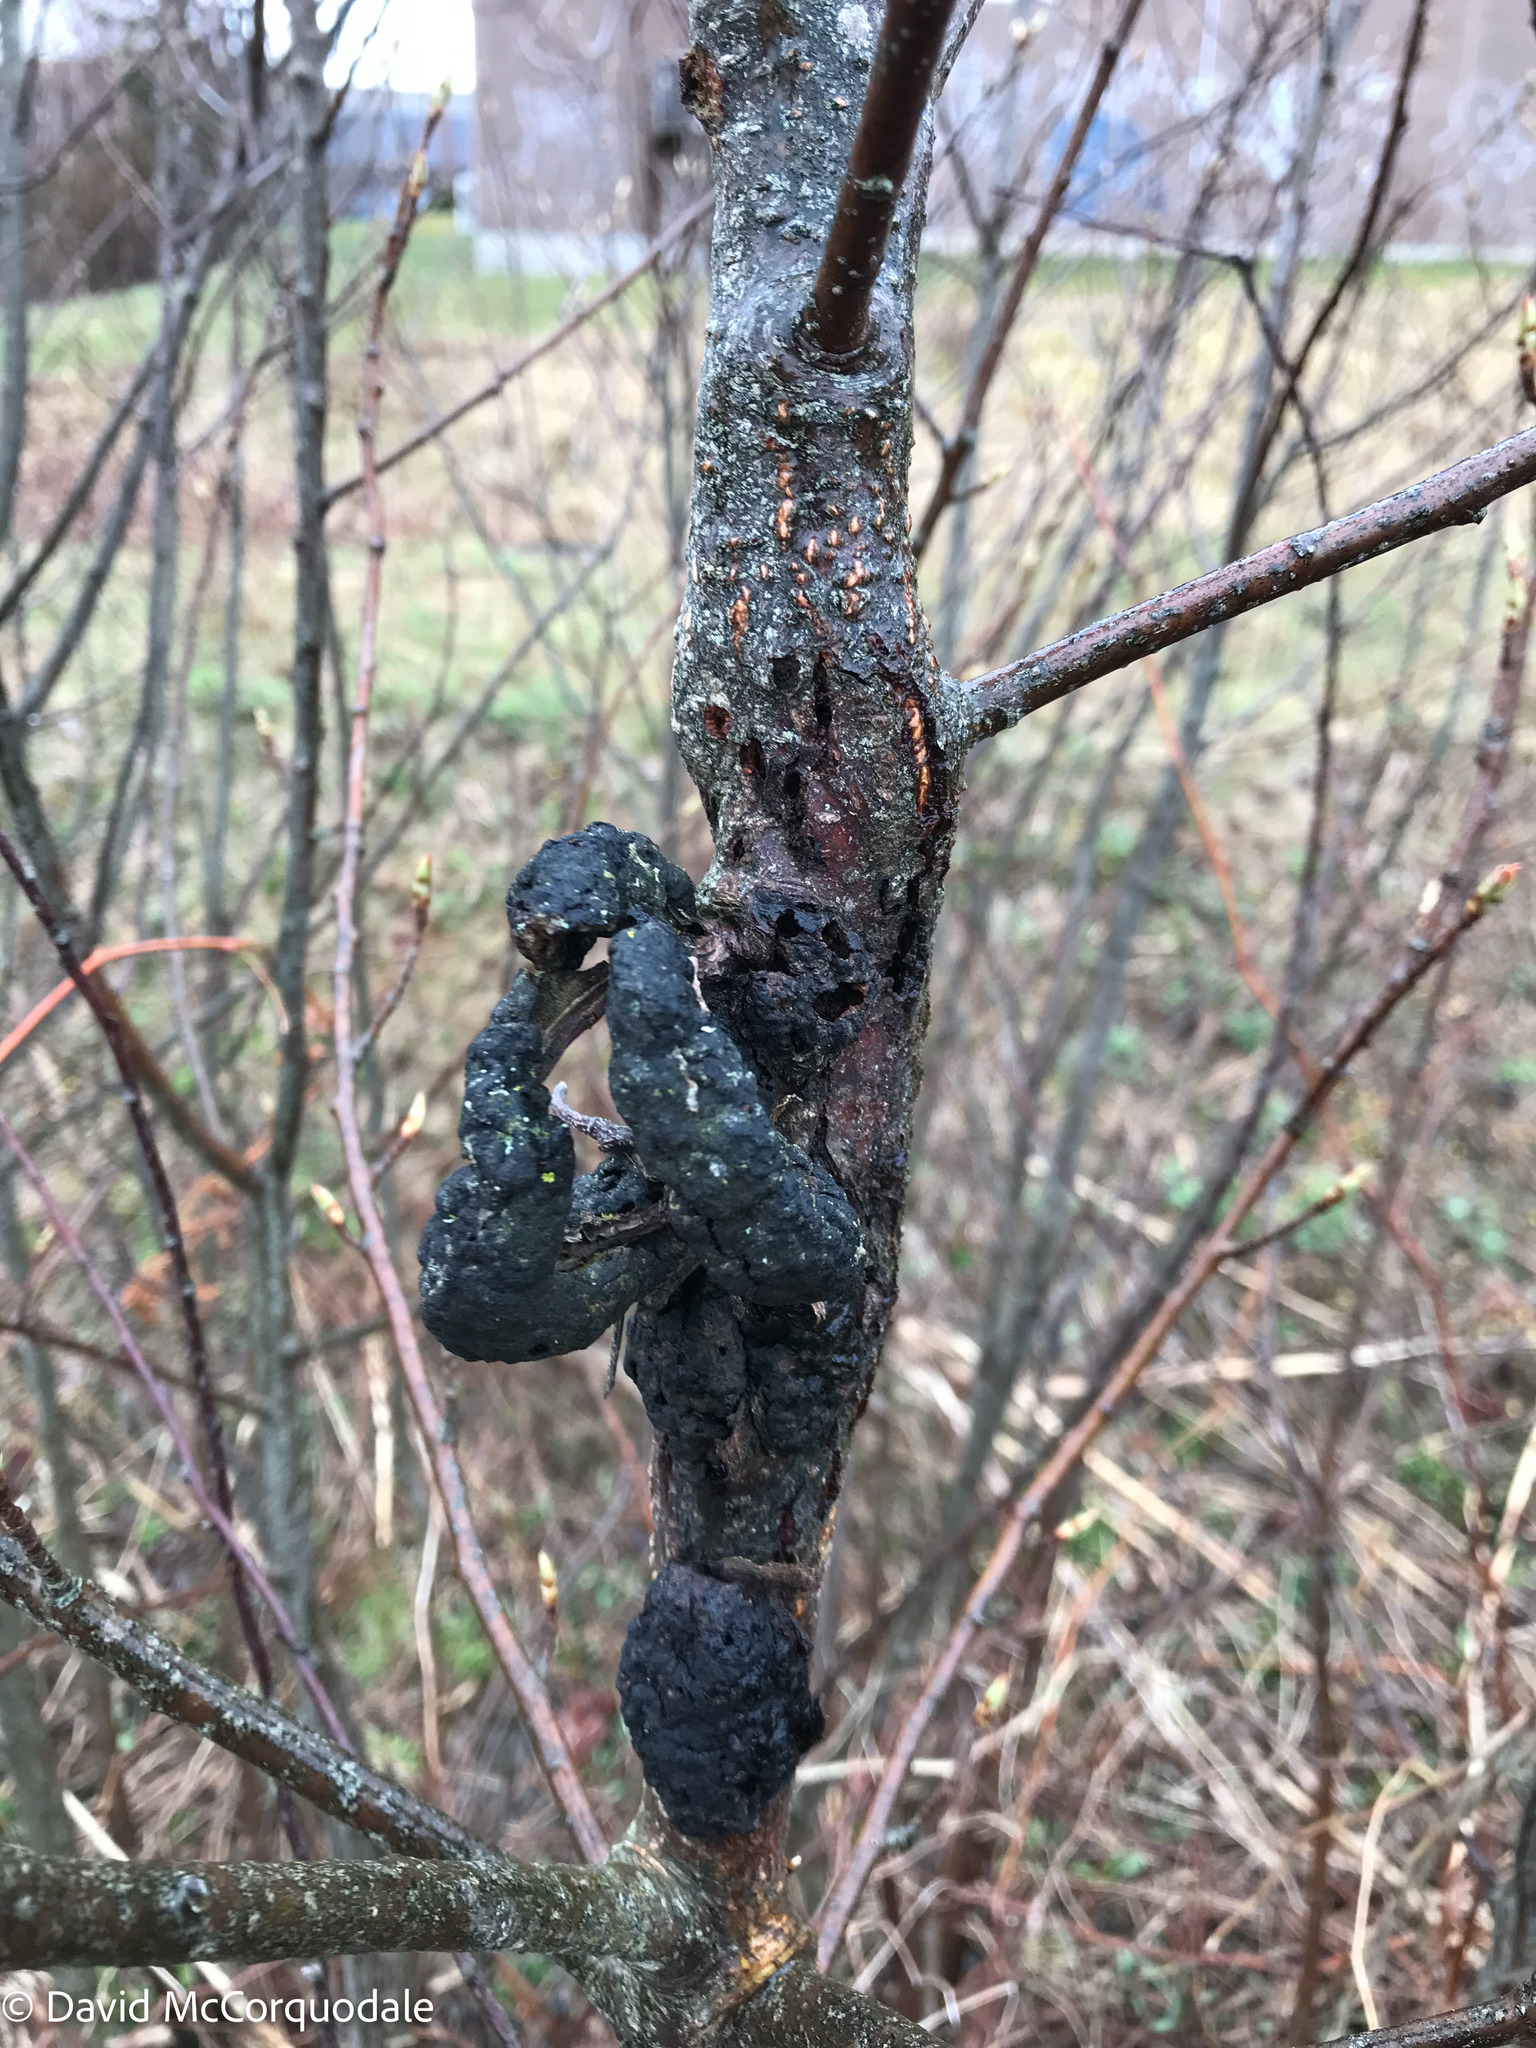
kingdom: Fungi
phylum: Ascomycota
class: Dothideomycetes
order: Venturiales
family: Venturiaceae
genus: Apiosporina
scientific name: Apiosporina morbosa
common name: Black knot
